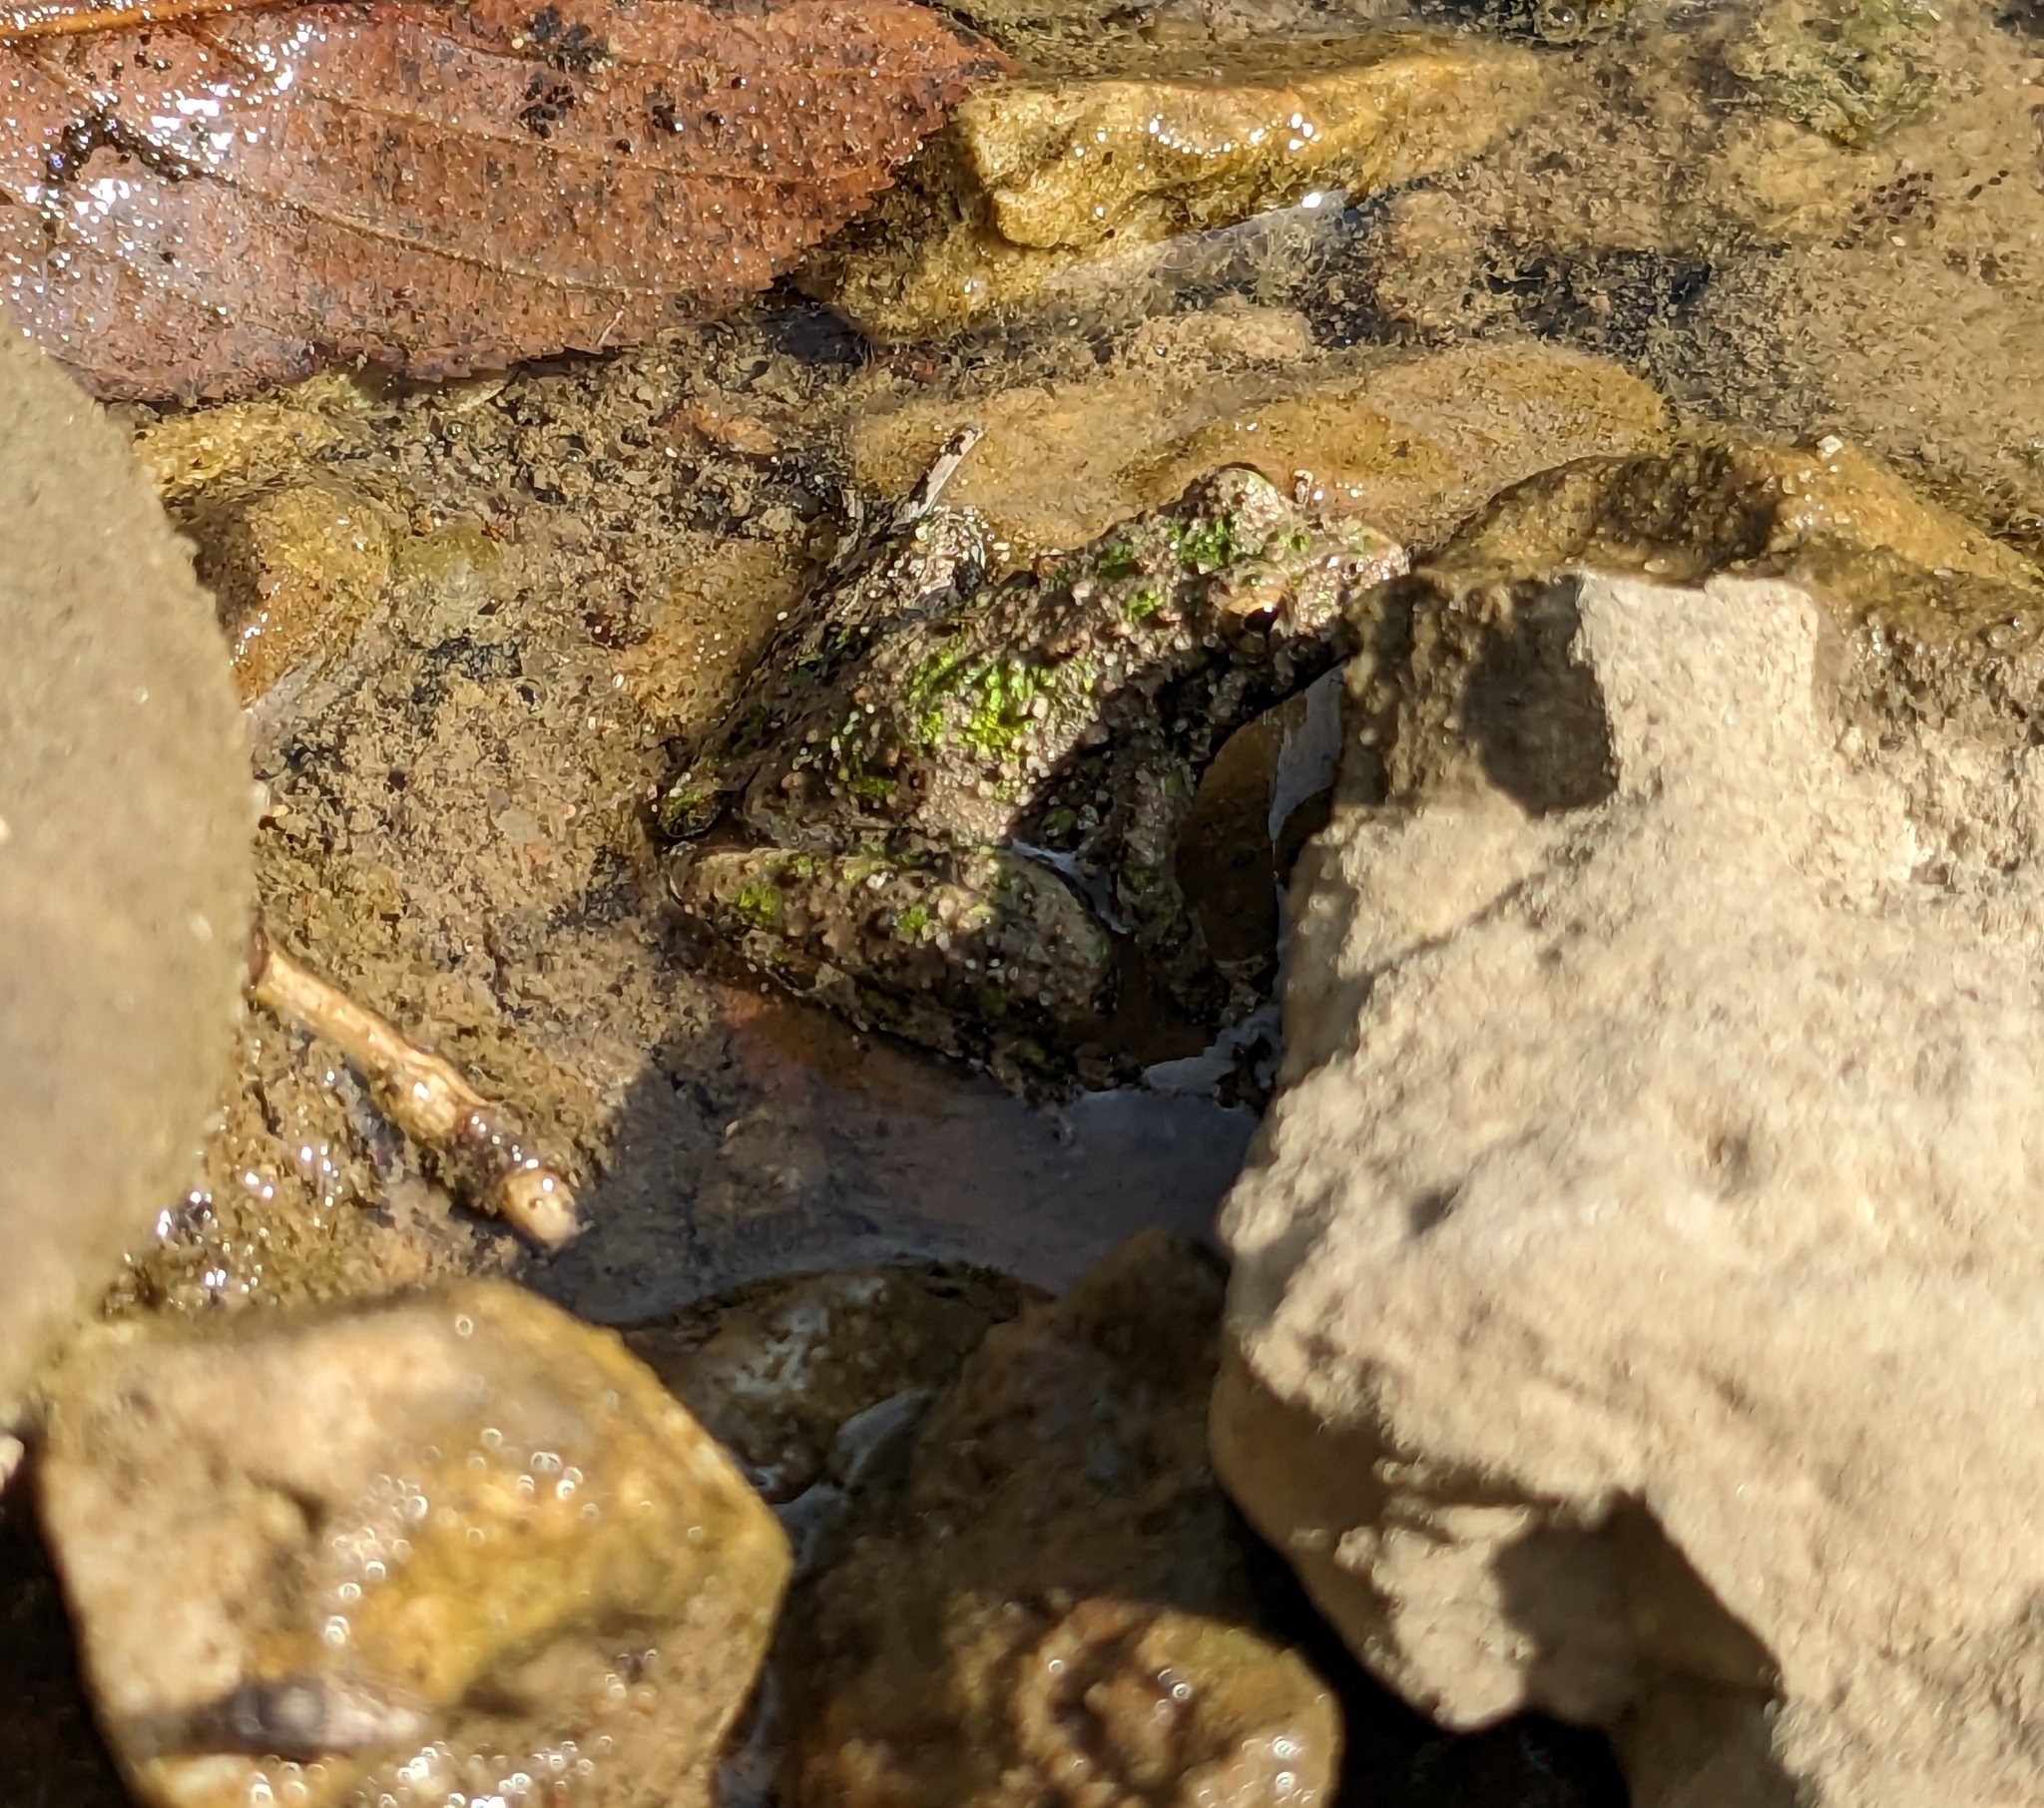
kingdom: Animalia
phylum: Chordata
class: Amphibia
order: Anura
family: Hylidae
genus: Acris
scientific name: Acris blanchardi
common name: Blanchard's cricket frog
